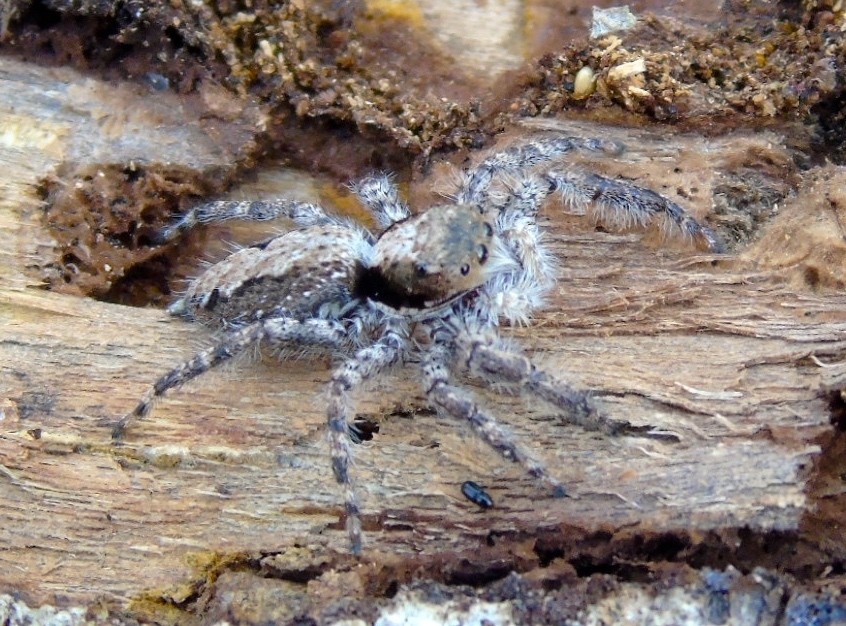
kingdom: Animalia
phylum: Arthropoda
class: Arachnida
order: Araneae
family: Salticidae
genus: Balmaceda
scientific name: Balmaceda
